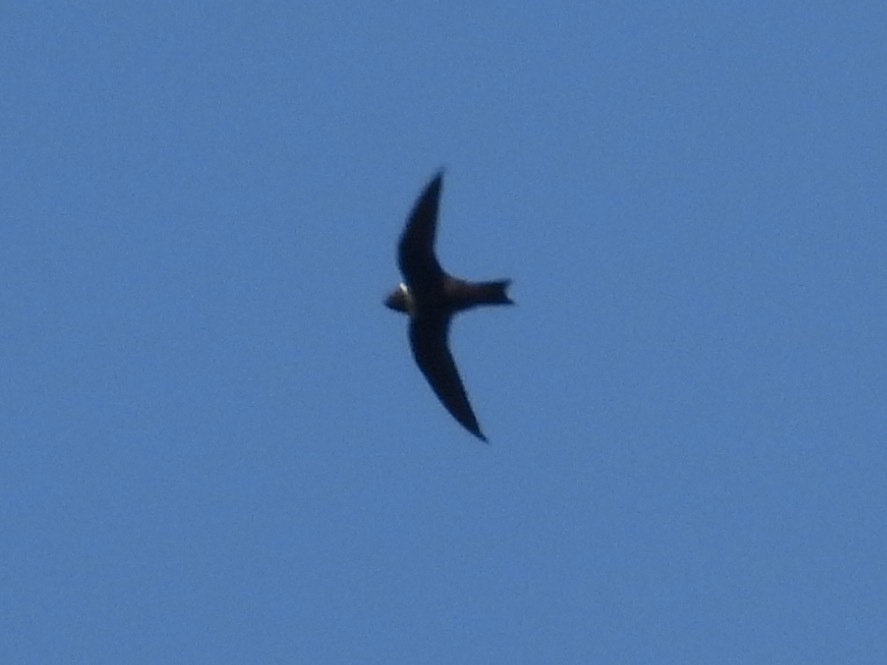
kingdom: Animalia
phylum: Chordata
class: Aves
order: Apodiformes
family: Apodidae
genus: Streptoprocne
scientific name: Streptoprocne zonaris
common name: White-collared swift
